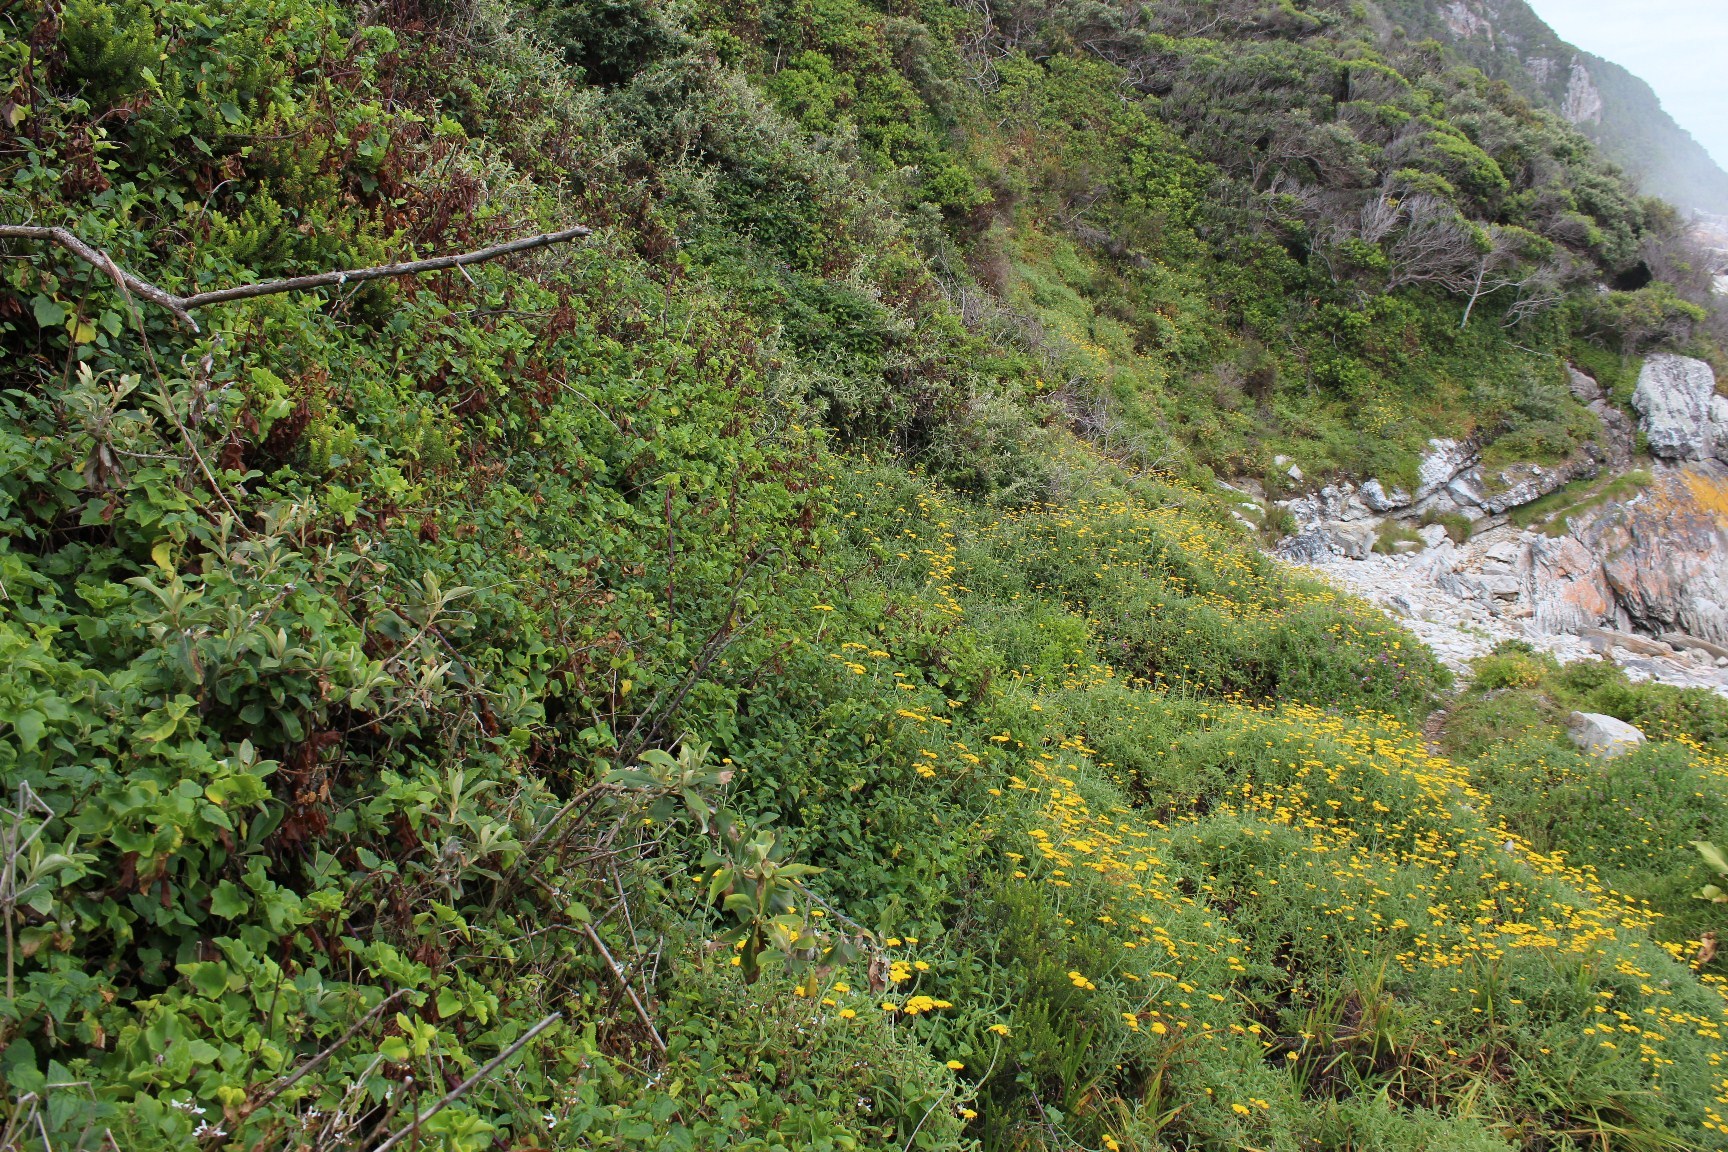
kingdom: Plantae
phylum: Tracheophyta
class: Magnoliopsida
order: Lamiales
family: Lamiaceae
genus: Stachys
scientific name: Stachys aethiopica
